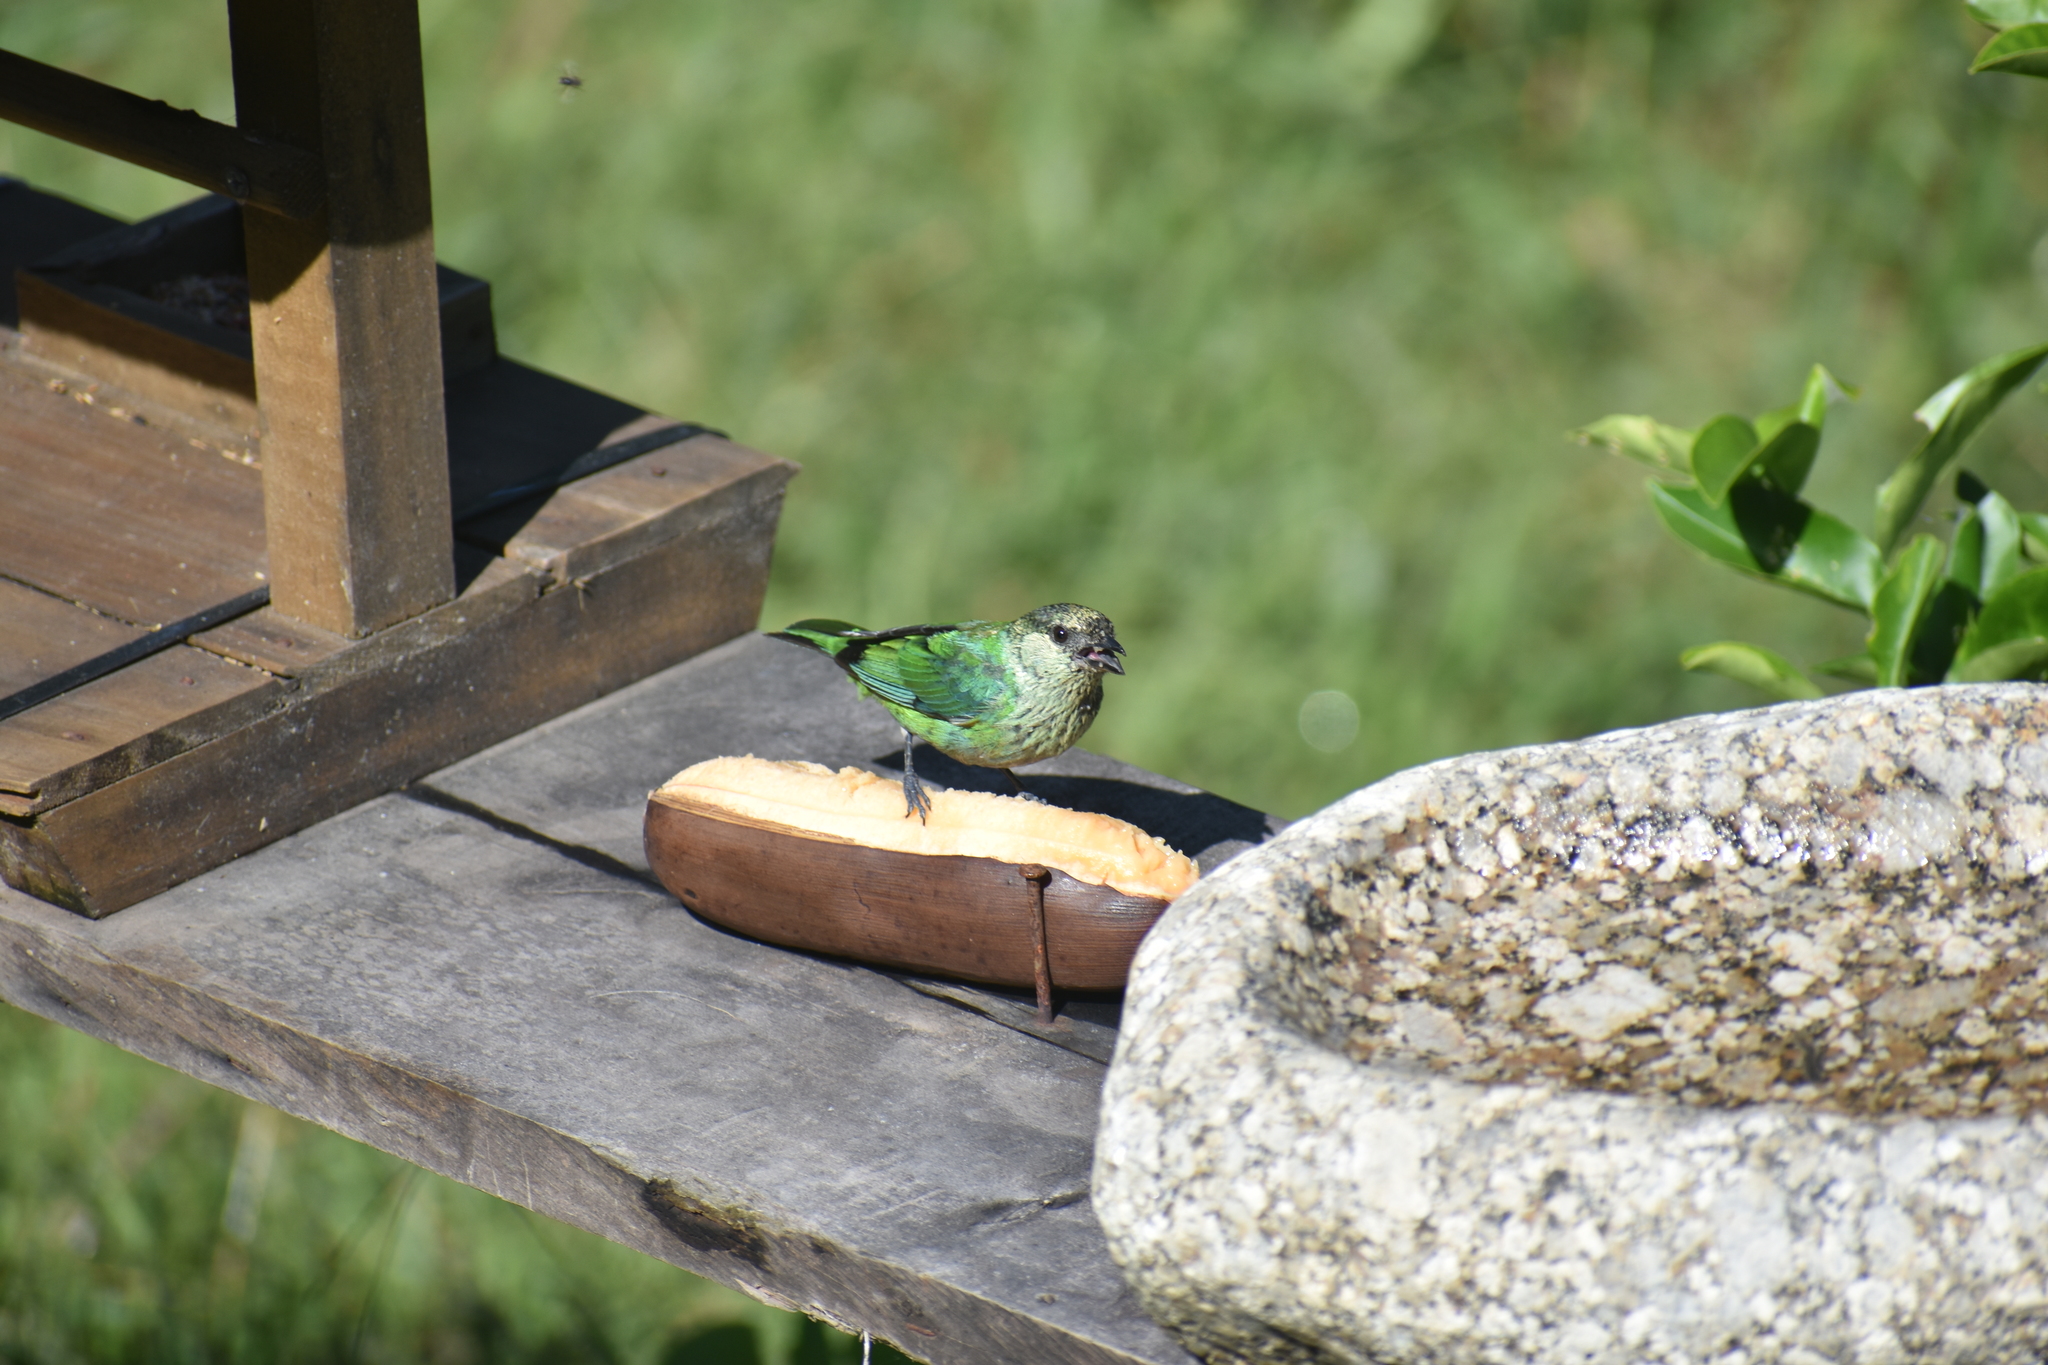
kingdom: Animalia
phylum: Chordata
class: Aves
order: Passeriformes
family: Thraupidae
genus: Stilpnia
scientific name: Stilpnia heinei
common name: Black-capped tanager
